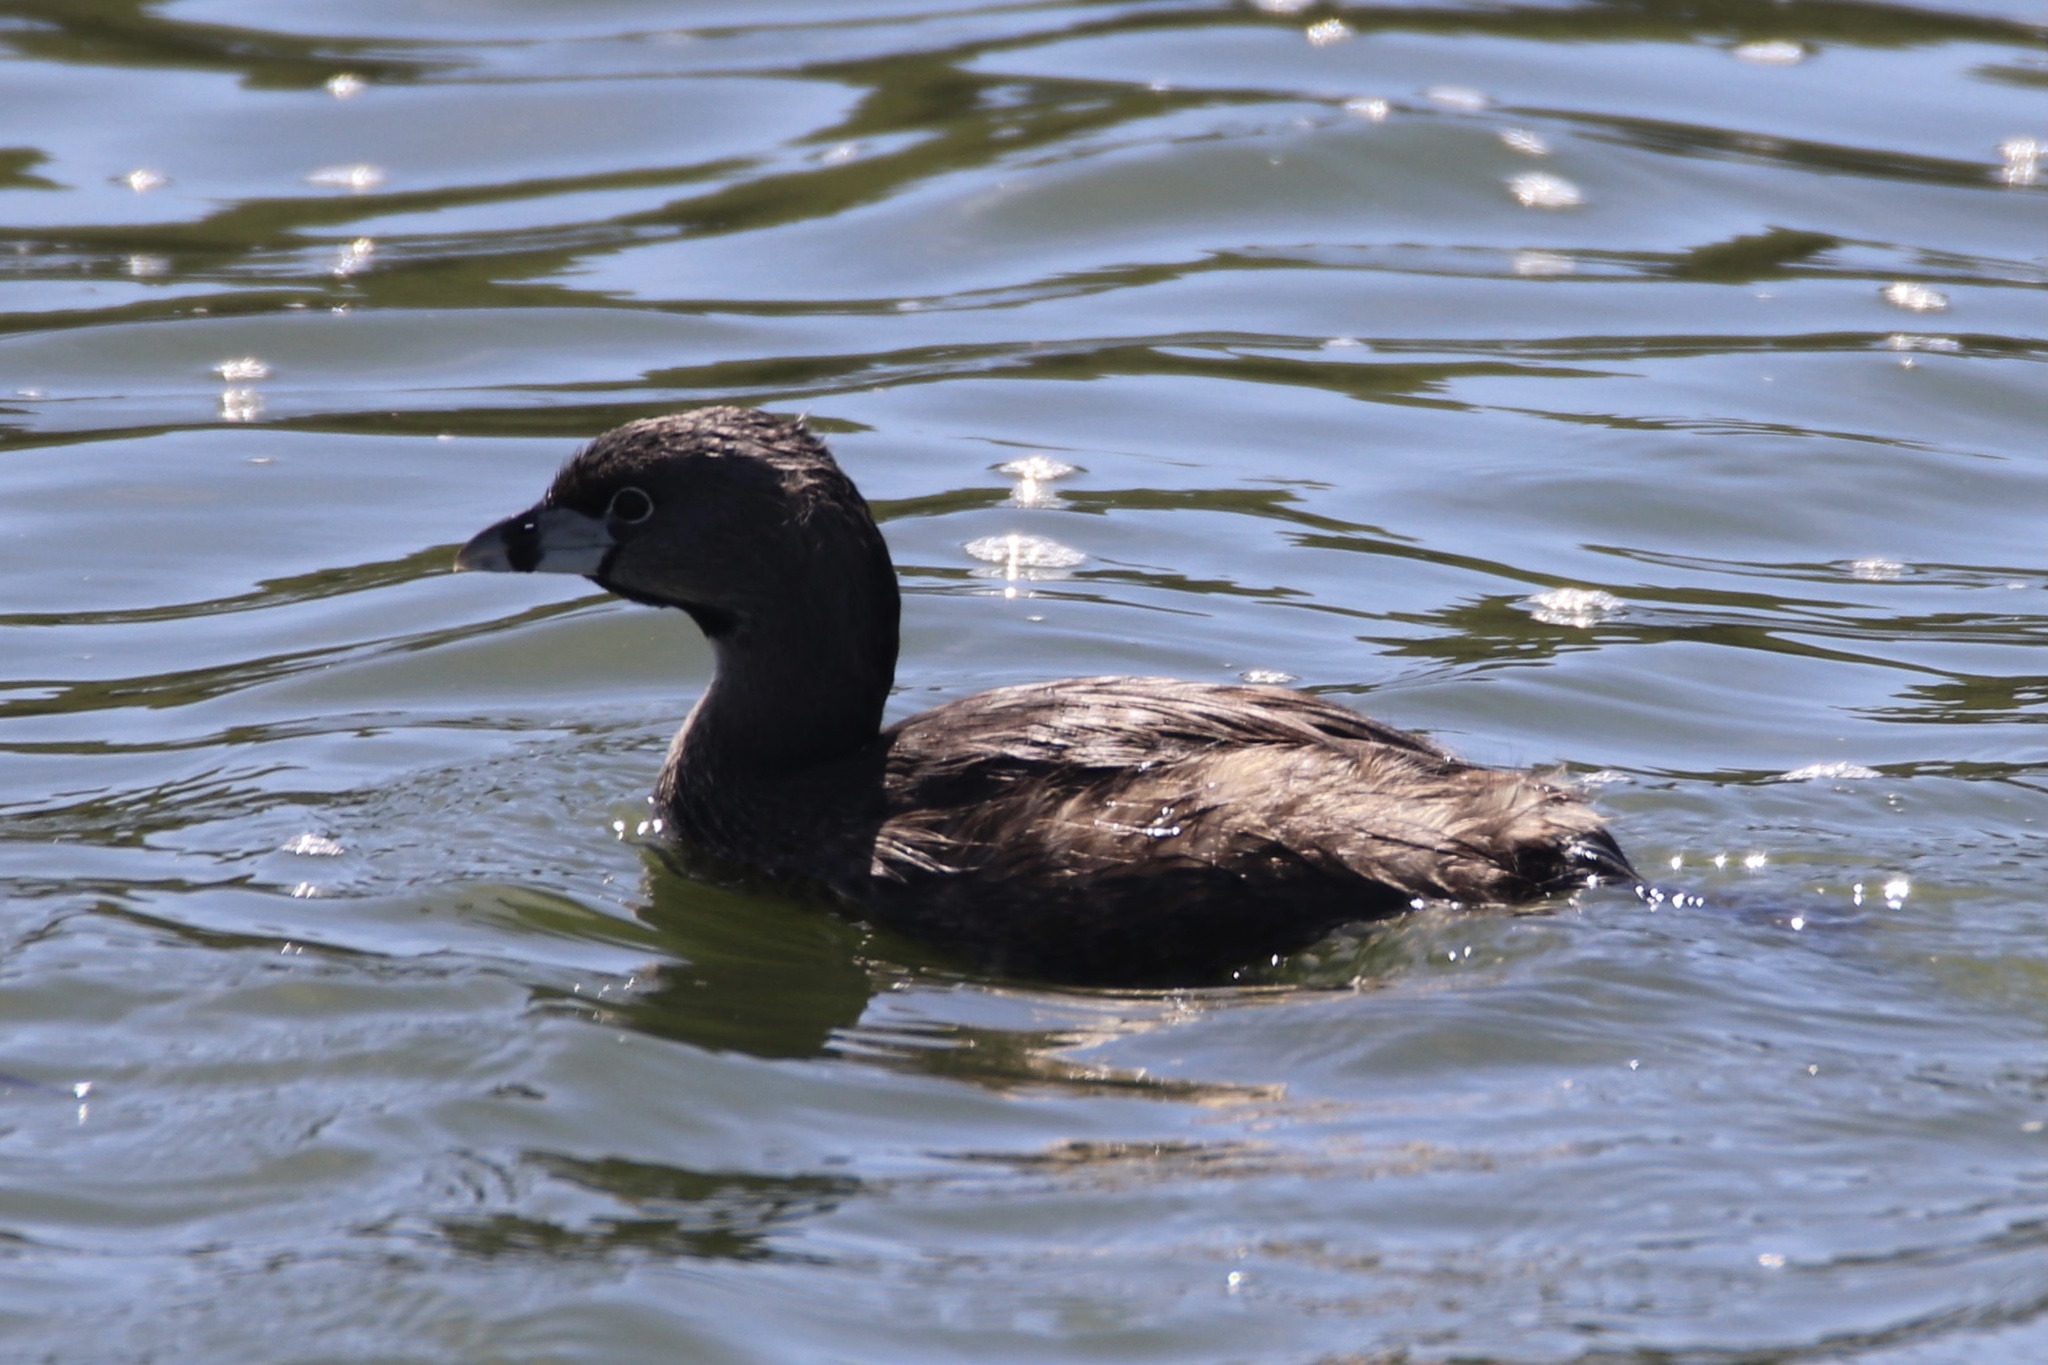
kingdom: Animalia
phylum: Chordata
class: Aves
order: Podicipediformes
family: Podicipedidae
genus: Podilymbus
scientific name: Podilymbus podiceps
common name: Pied-billed grebe
